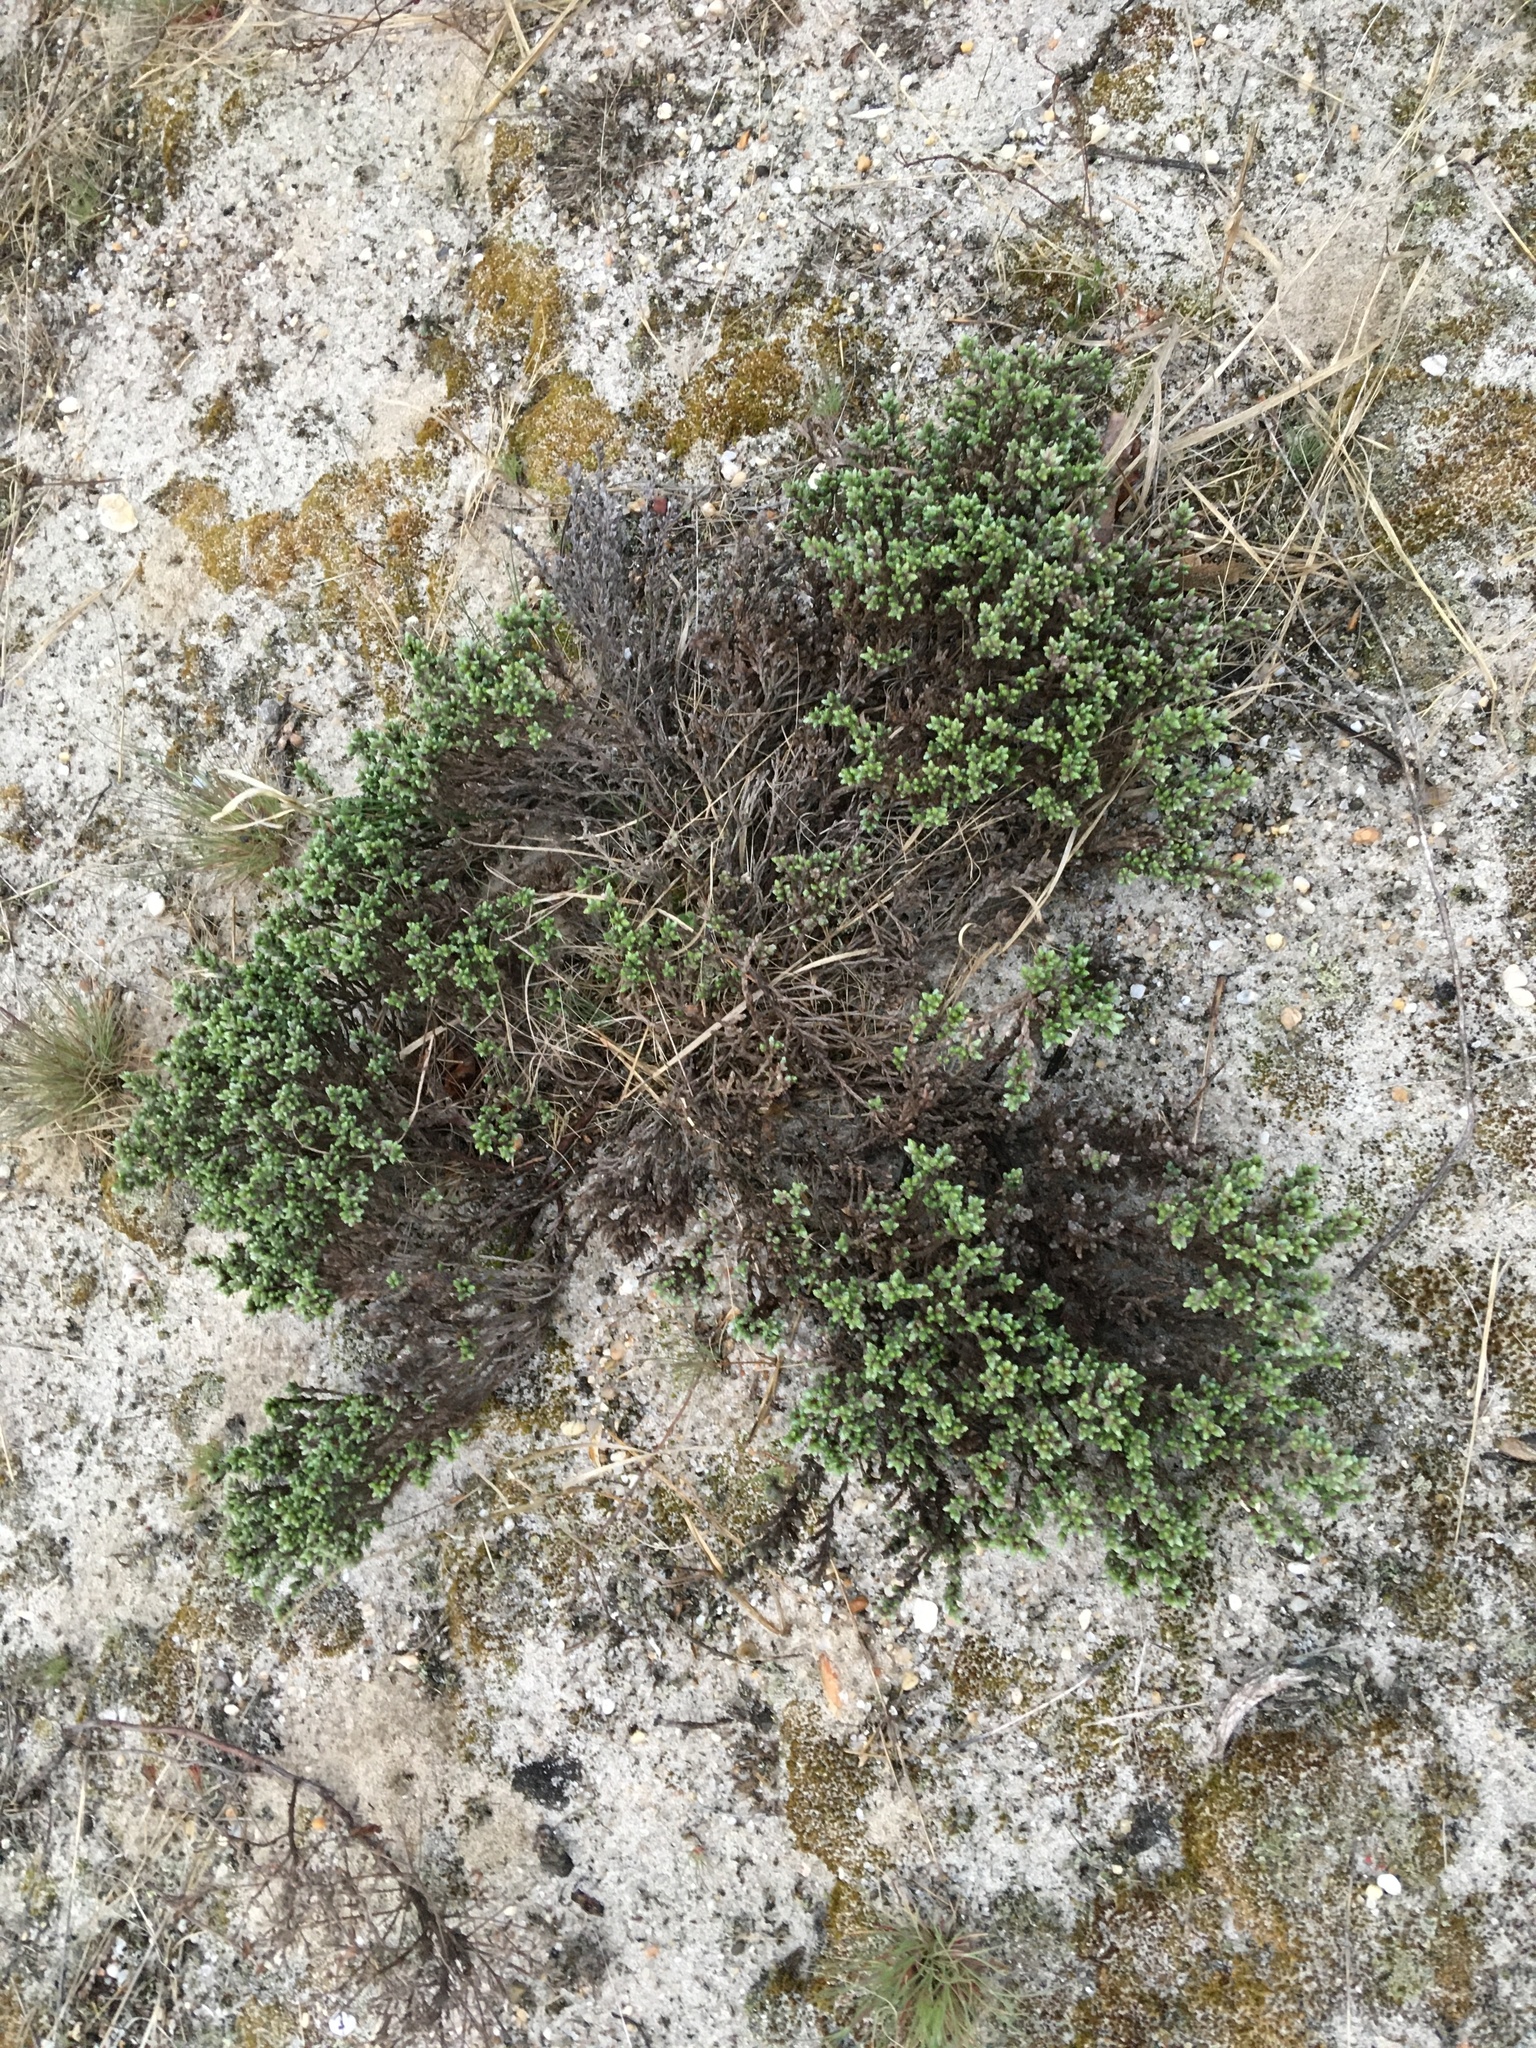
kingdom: Plantae
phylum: Tracheophyta
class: Magnoliopsida
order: Malvales
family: Cistaceae
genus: Hudsonia
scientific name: Hudsonia tomentosa
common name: Beach-heath
